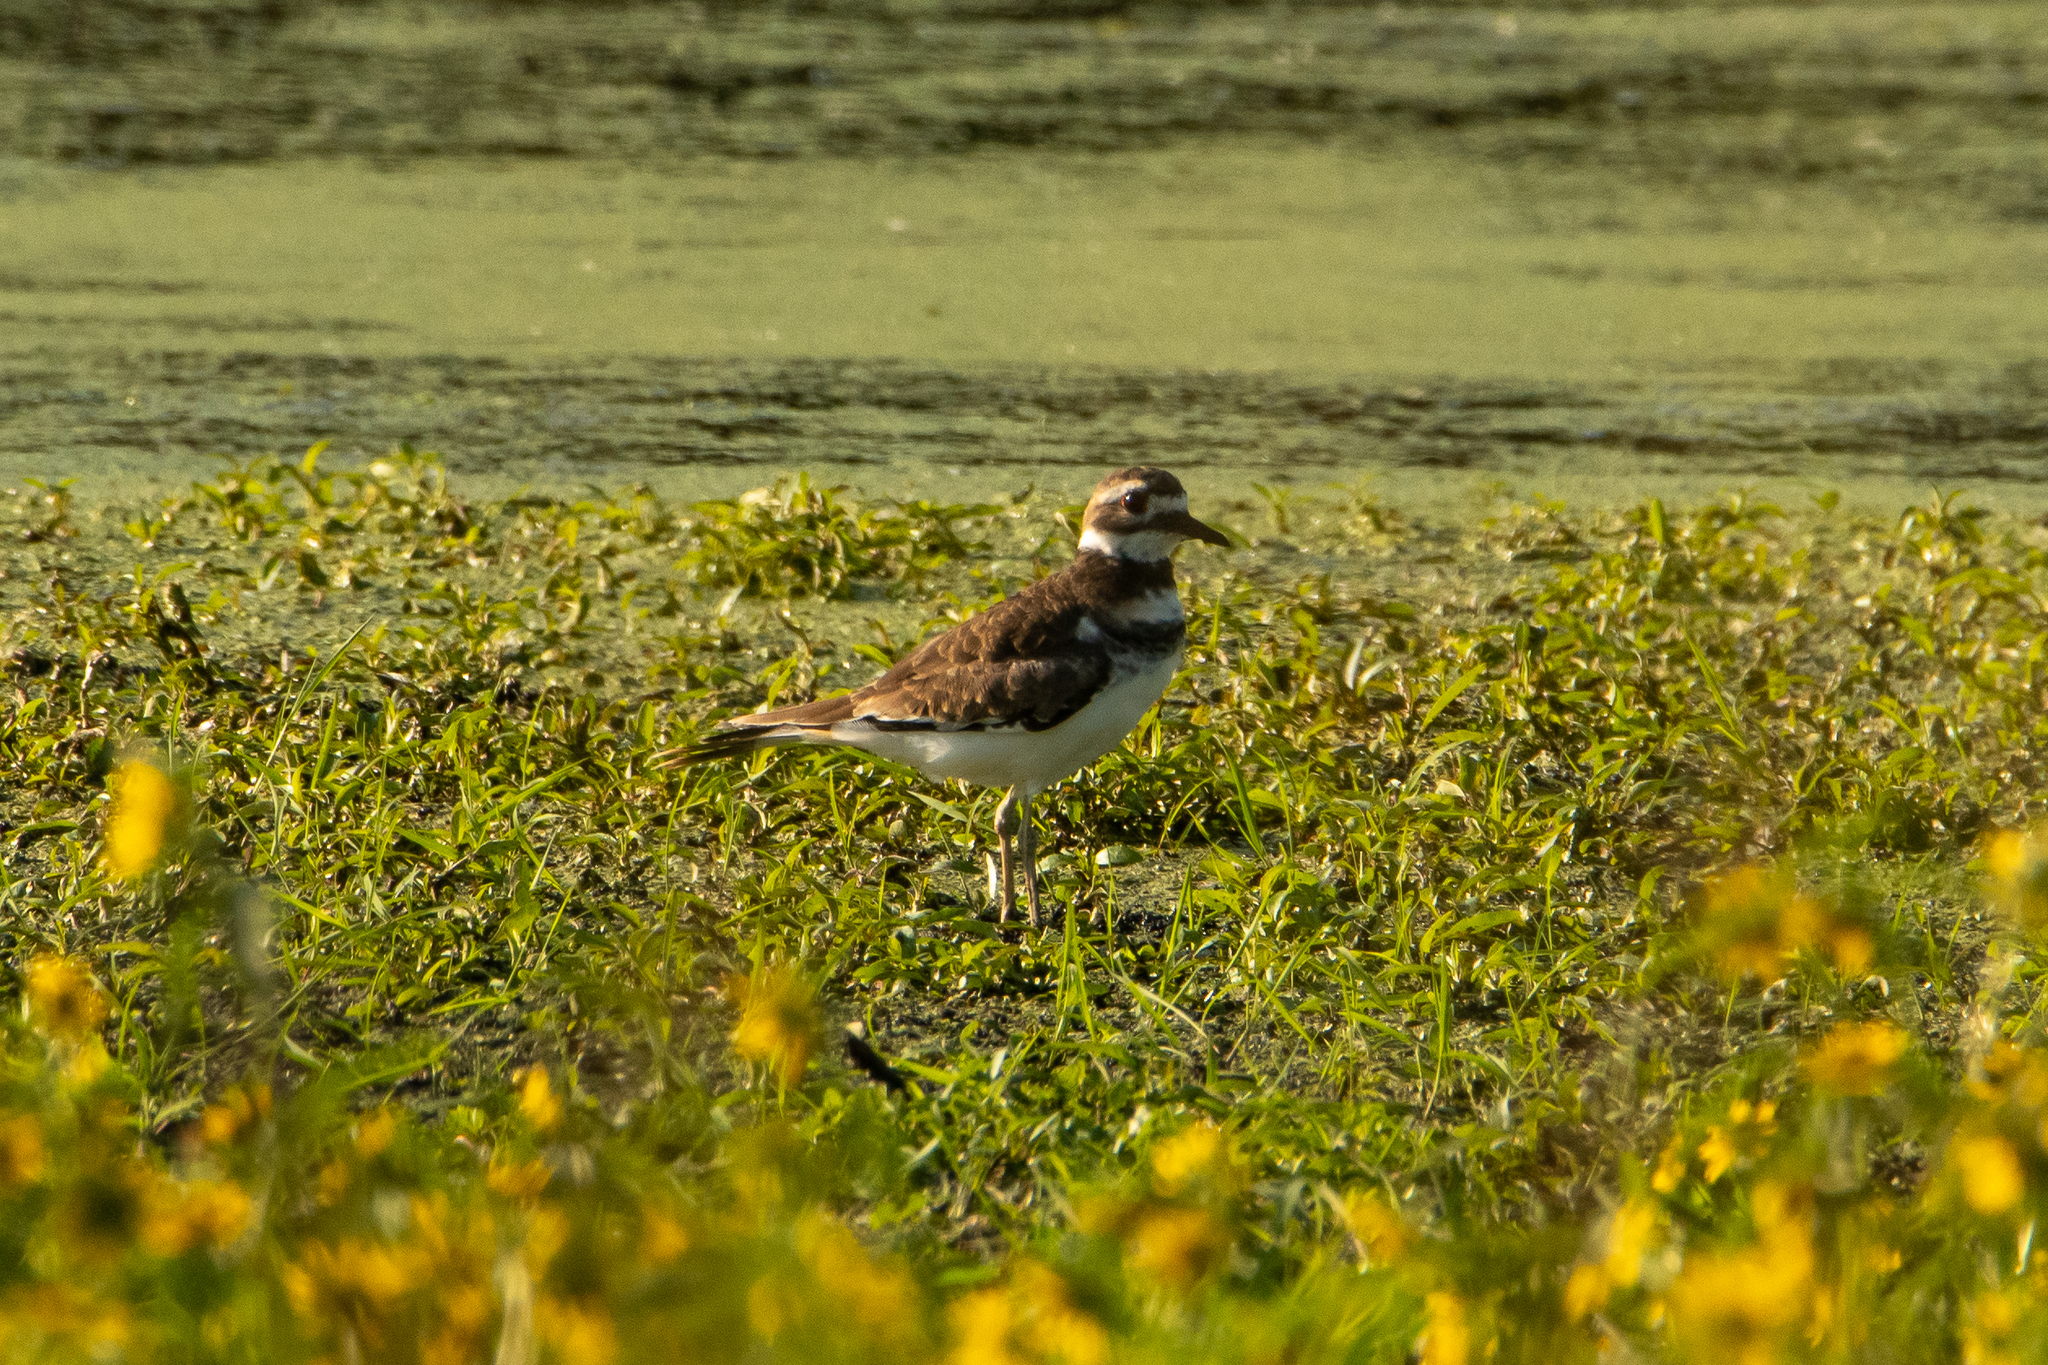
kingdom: Animalia
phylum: Chordata
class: Aves
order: Charadriiformes
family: Charadriidae
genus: Charadrius
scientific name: Charadrius vociferus
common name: Killdeer
